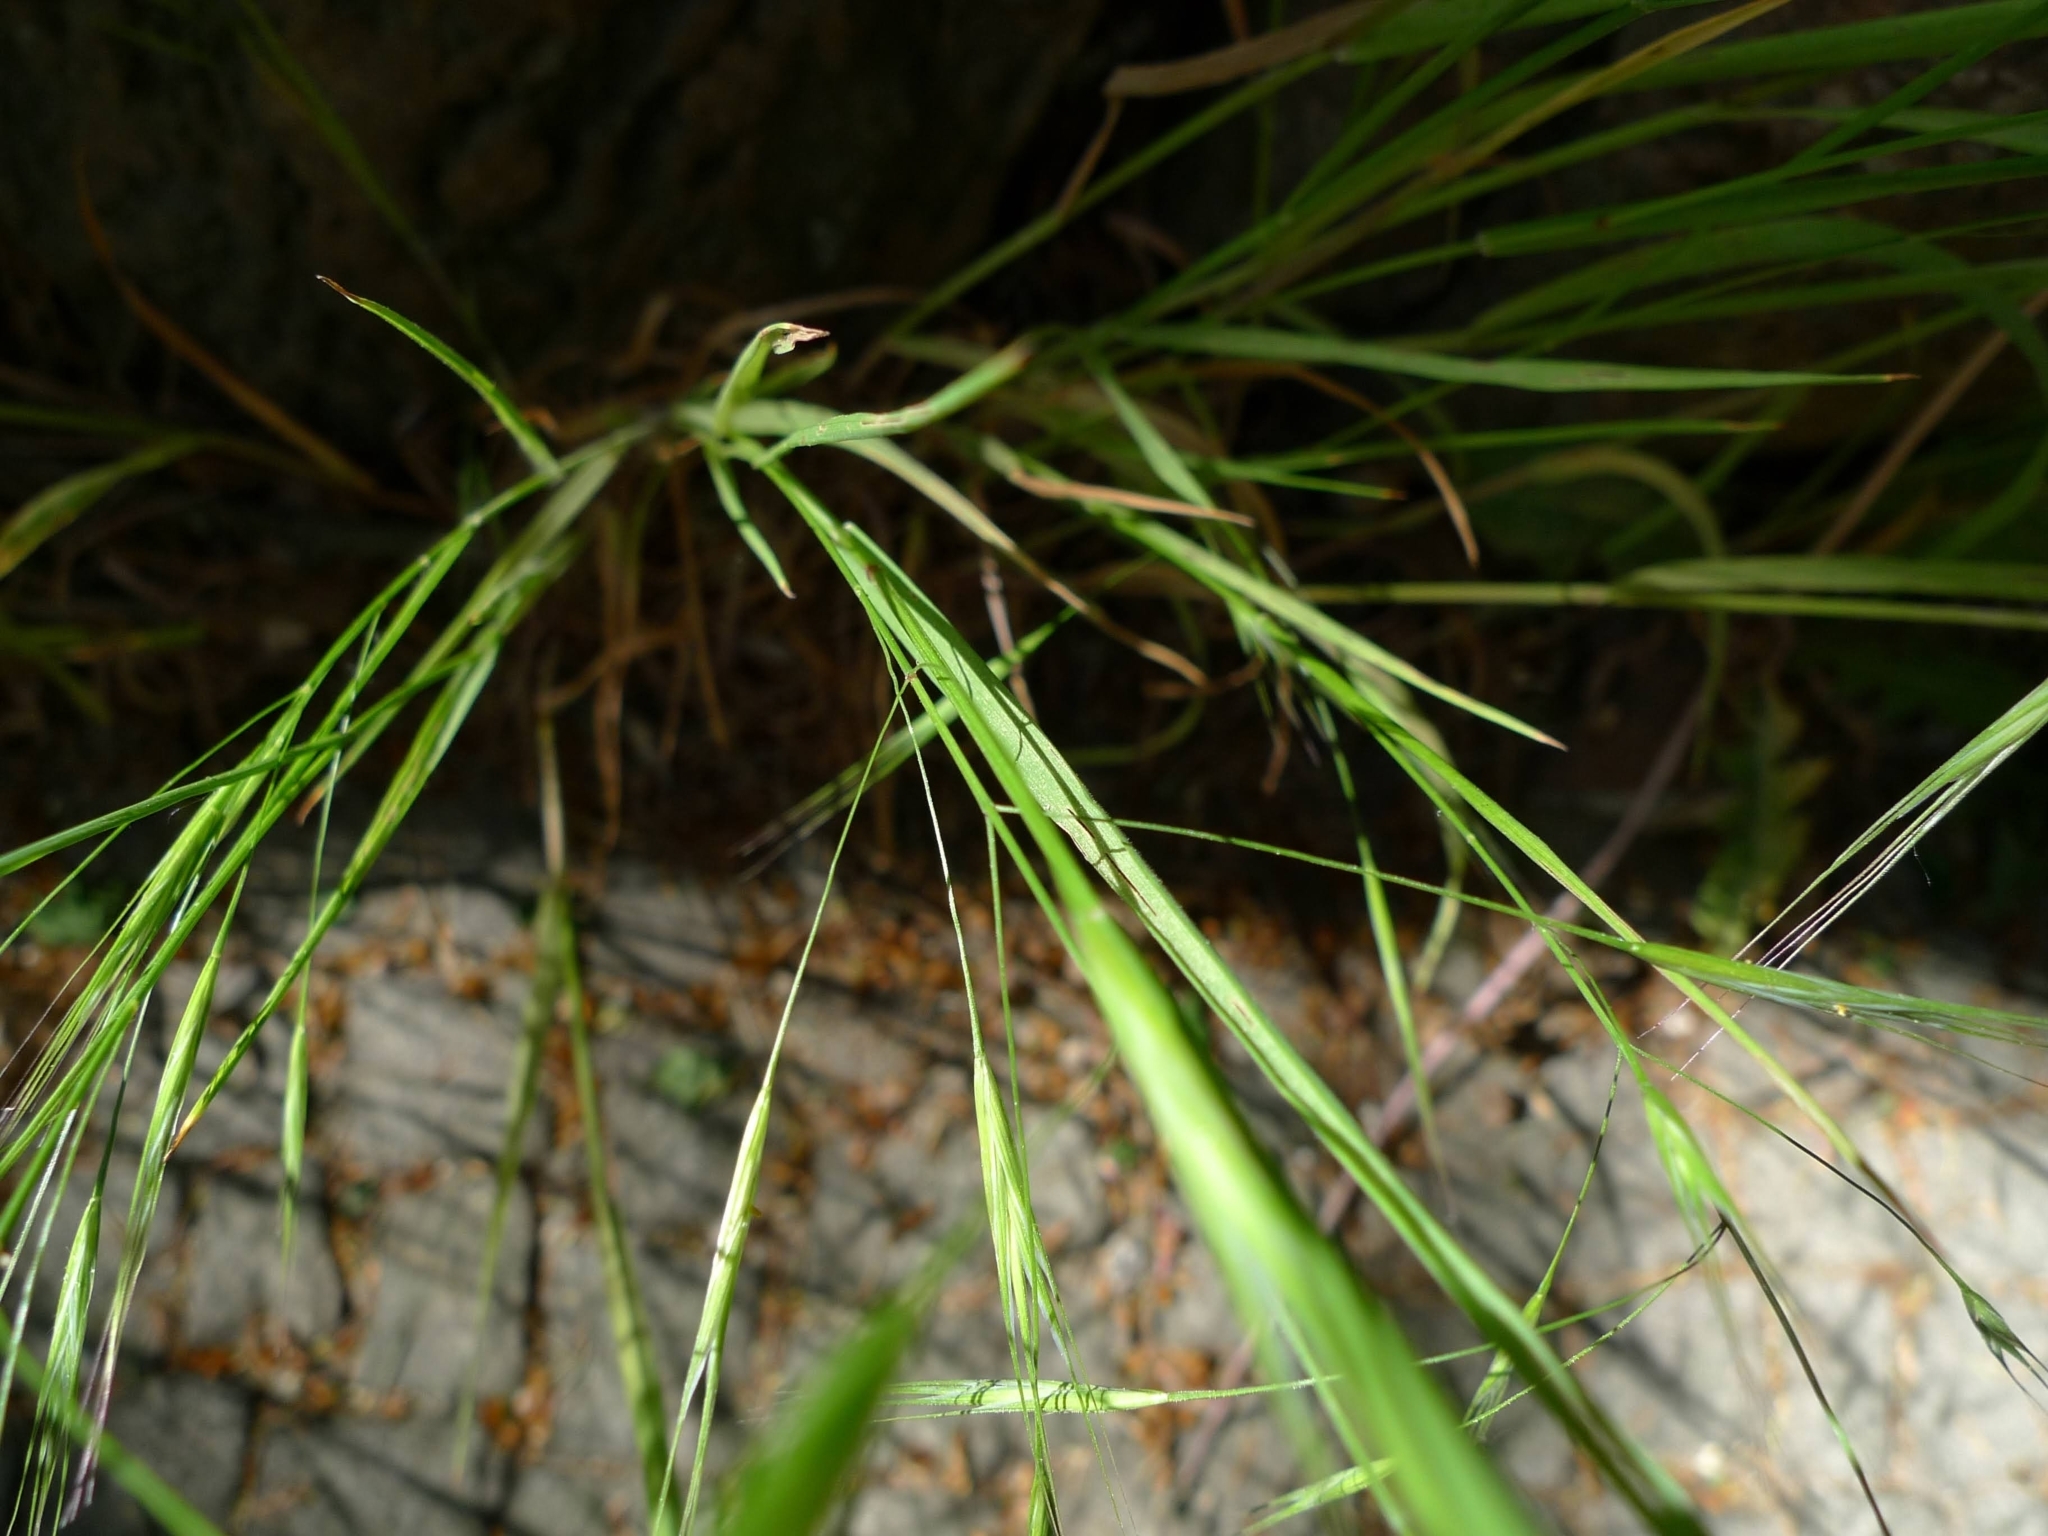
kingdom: Plantae
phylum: Tracheophyta
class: Liliopsida
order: Poales
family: Poaceae
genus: Bromus
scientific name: Bromus sterilis
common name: Poverty brome
